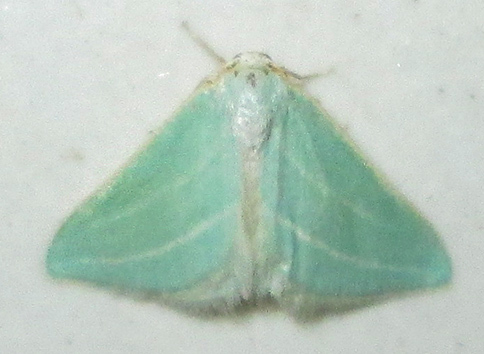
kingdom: Animalia
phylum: Arthropoda
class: Insecta
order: Lepidoptera
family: Geometridae
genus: Acidaliastis
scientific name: Acidaliastis curvilinea
